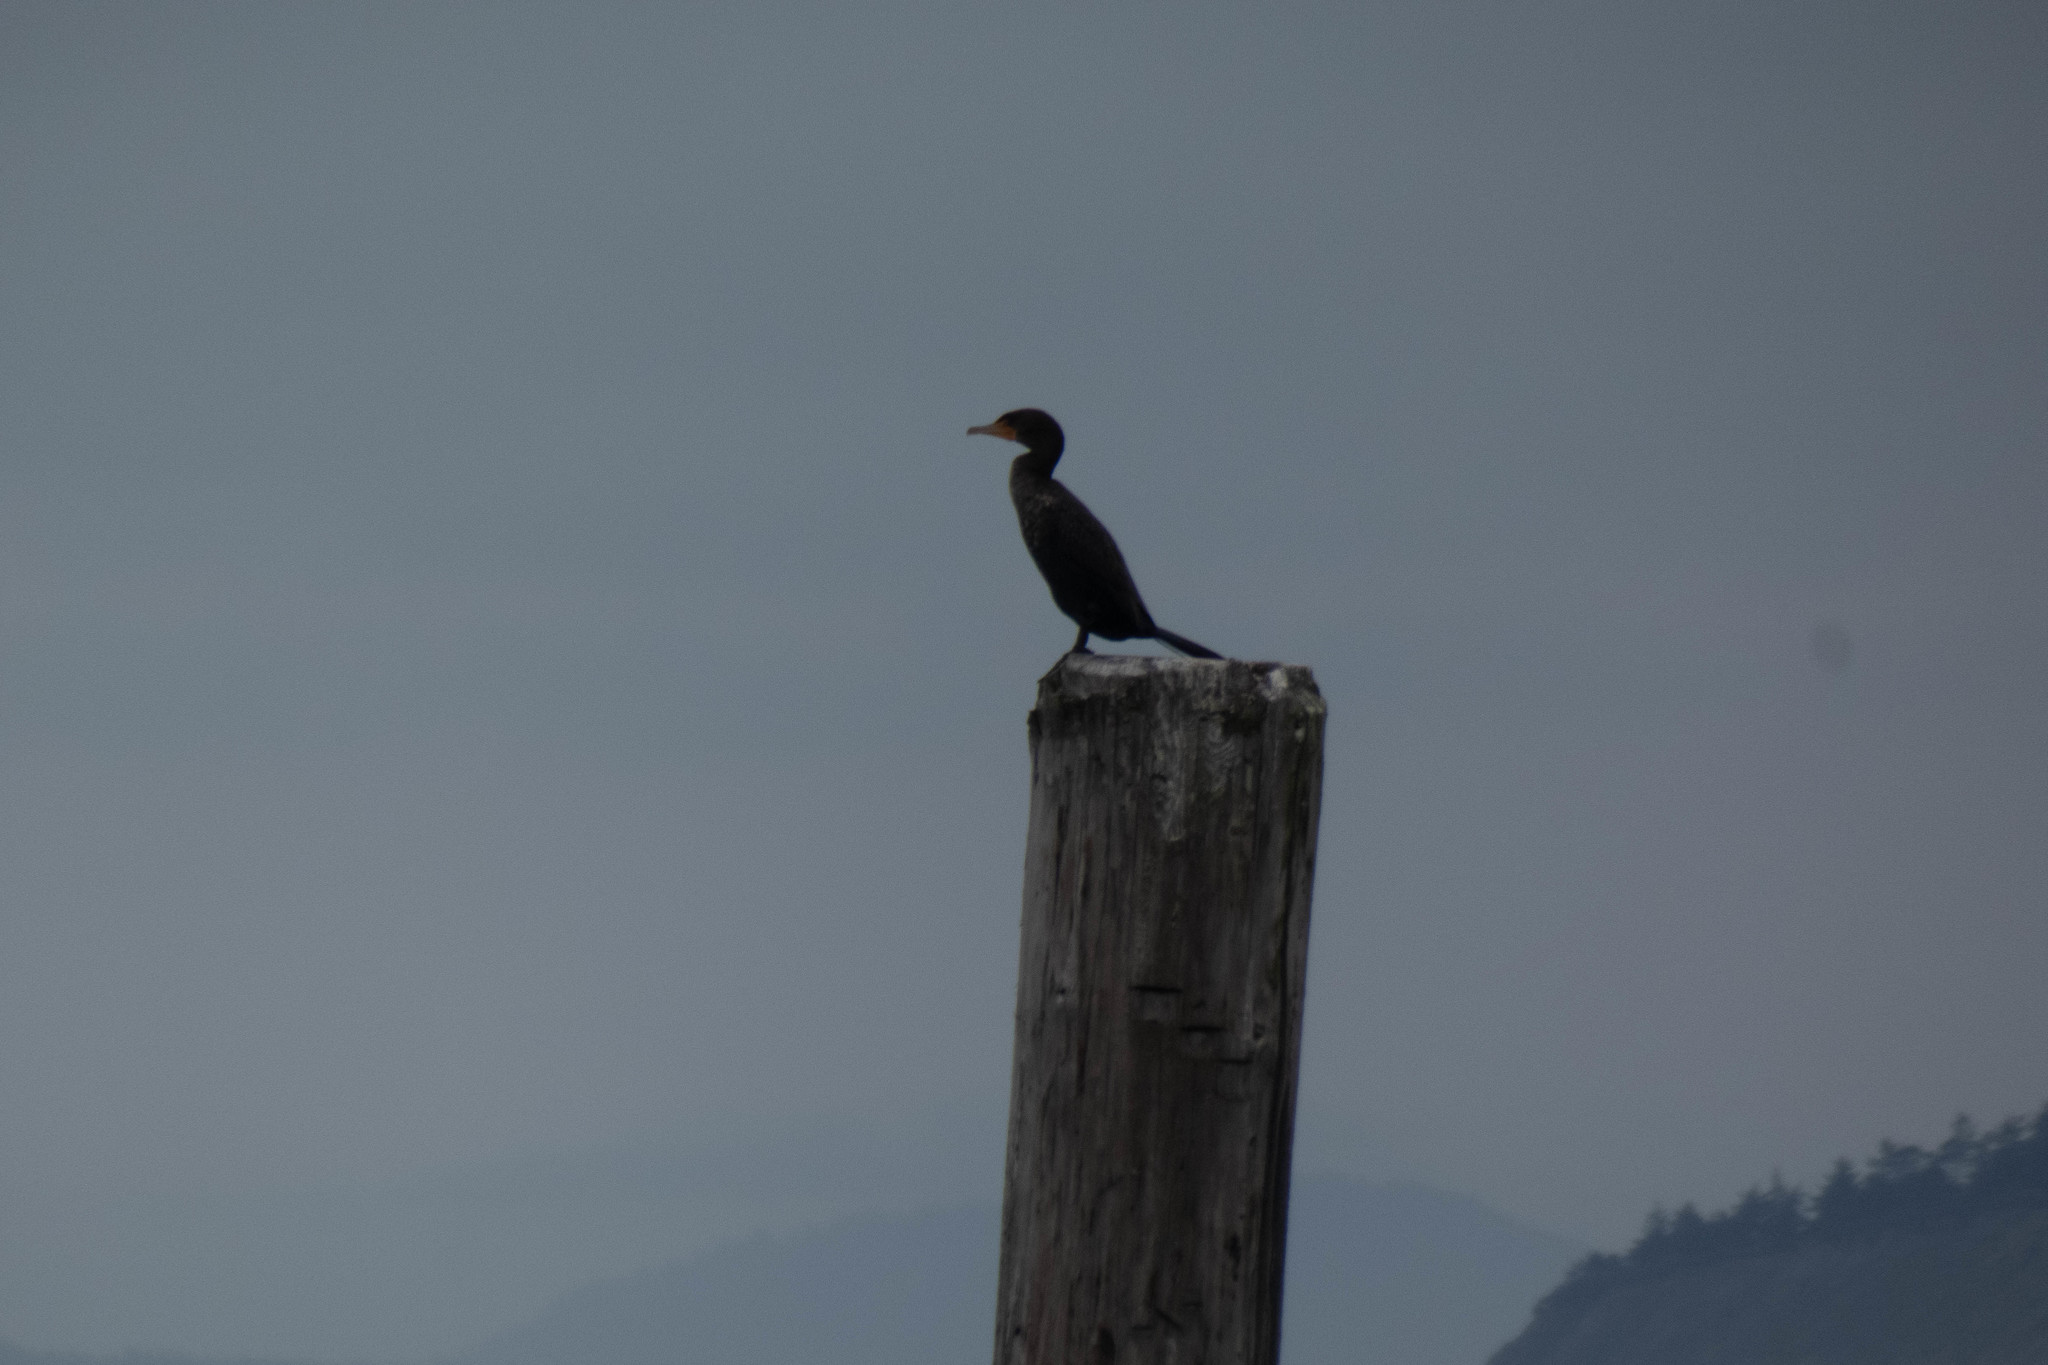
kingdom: Animalia
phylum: Chordata
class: Aves
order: Suliformes
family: Phalacrocoracidae
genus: Phalacrocorax
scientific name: Phalacrocorax auritus
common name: Double-crested cormorant
